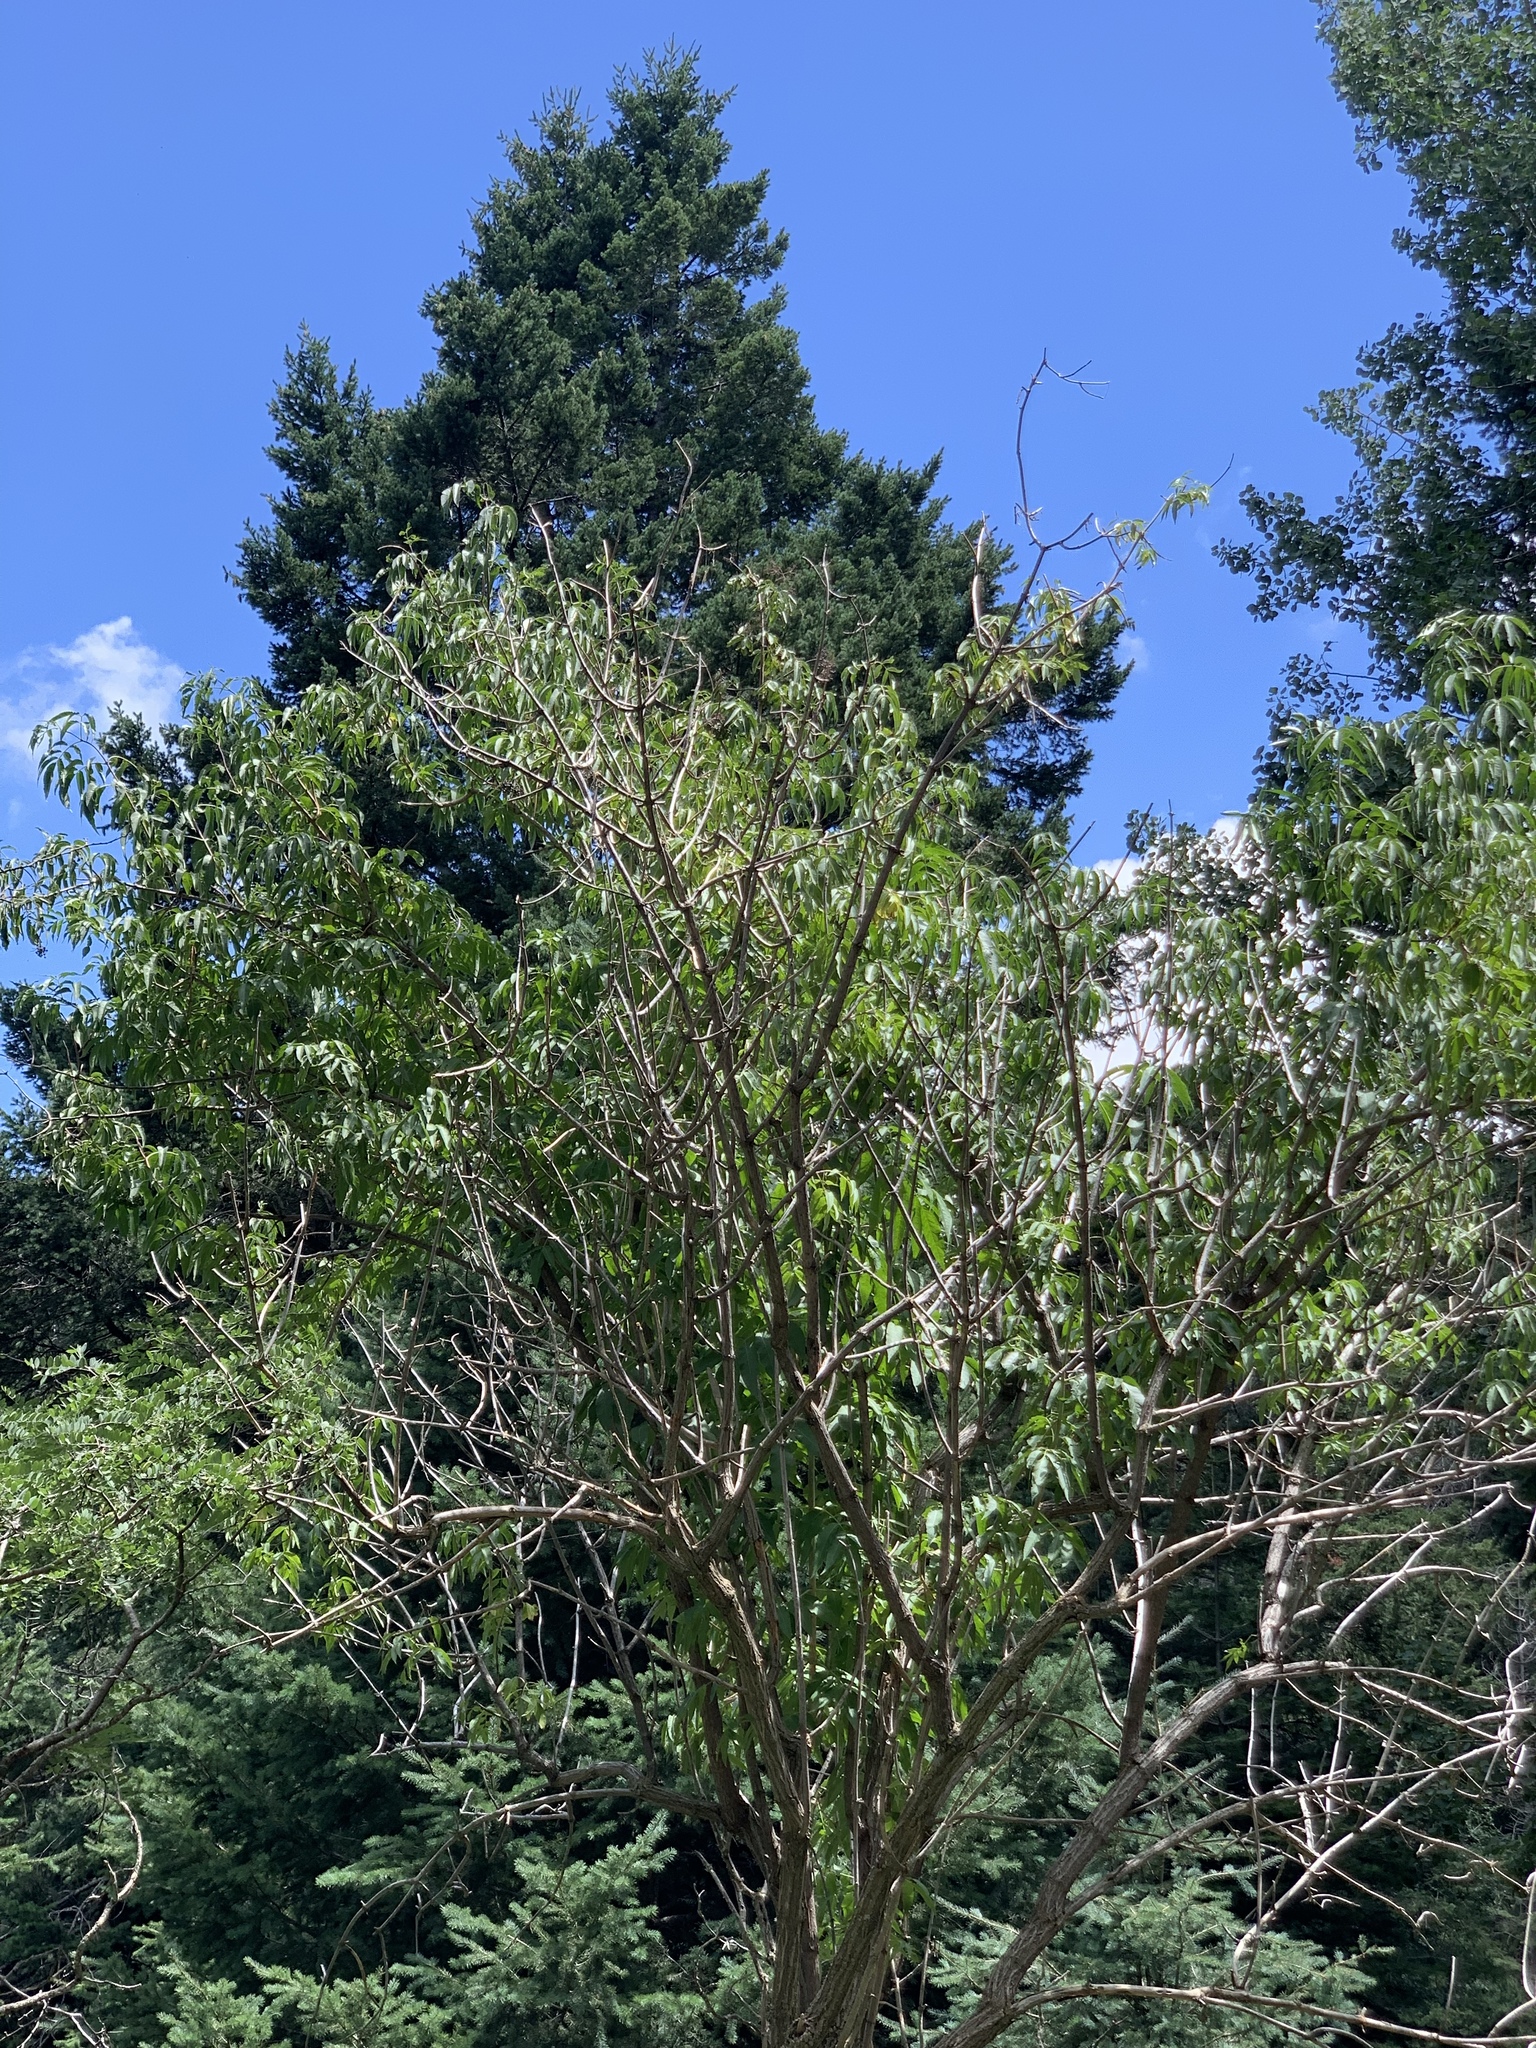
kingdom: Plantae
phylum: Tracheophyta
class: Magnoliopsida
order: Dipsacales
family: Viburnaceae
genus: Sambucus
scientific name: Sambucus cerulea
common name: Blue elder
